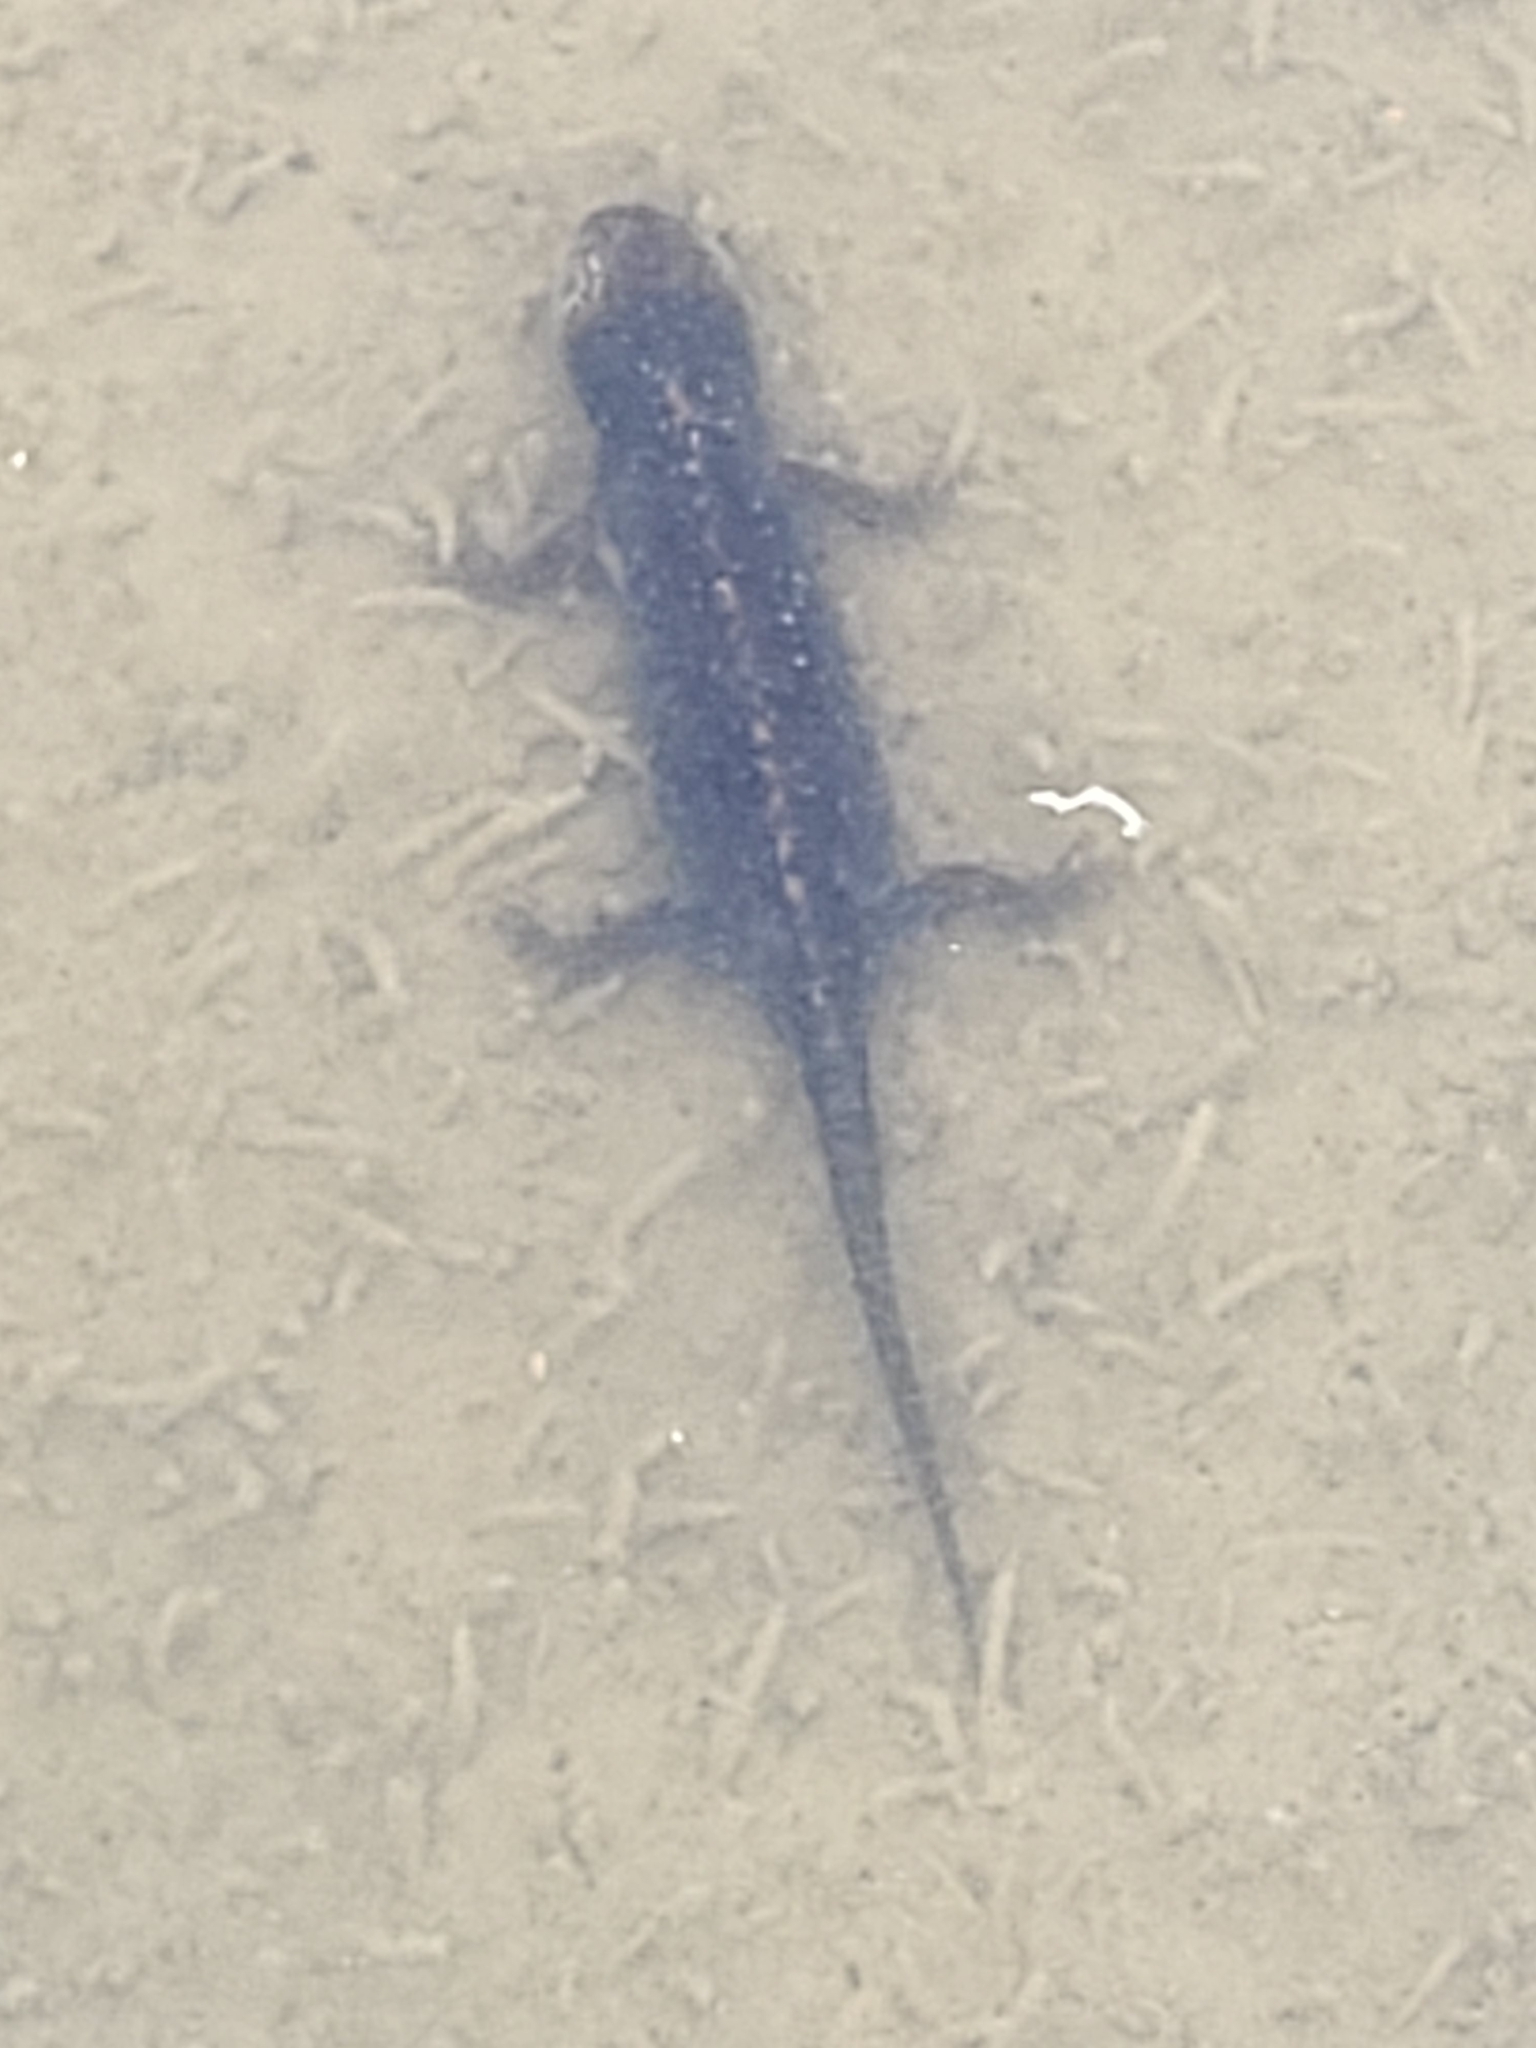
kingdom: Animalia
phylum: Chordata
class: Amphibia
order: Caudata
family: Salamandridae
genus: Ichthyosaura
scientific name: Ichthyosaura alpestris
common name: Alpine newt
